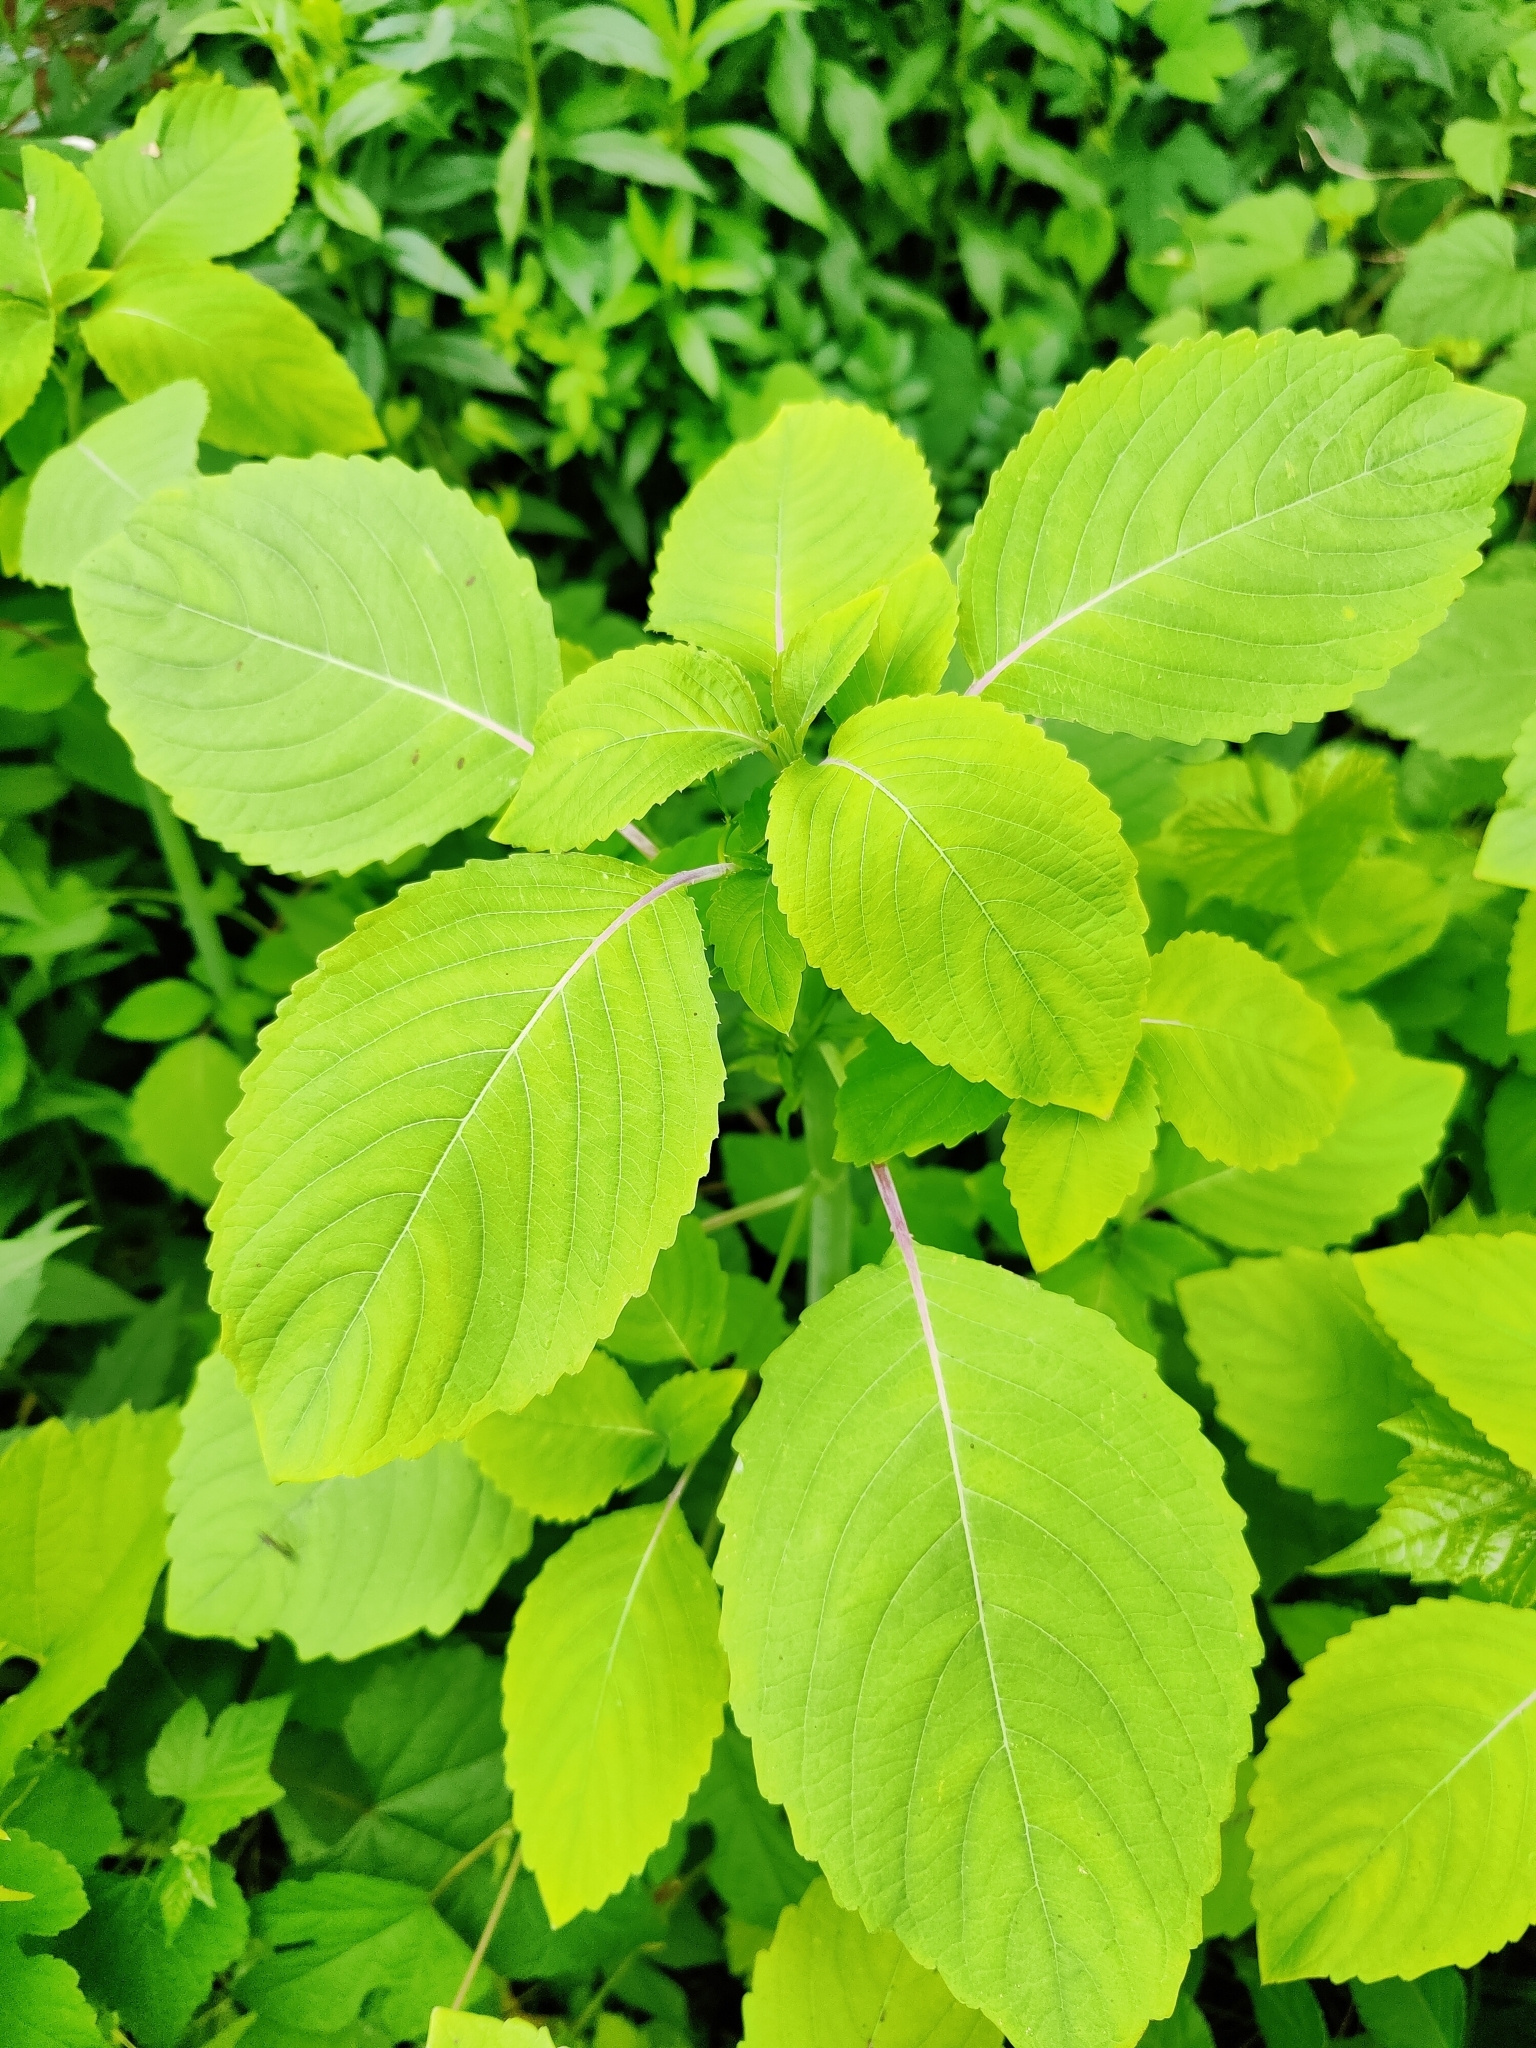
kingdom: Plantae
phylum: Tracheophyta
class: Magnoliopsida
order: Ericales
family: Balsaminaceae
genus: Impatiens
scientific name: Impatiens capensis
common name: Orange balsam
